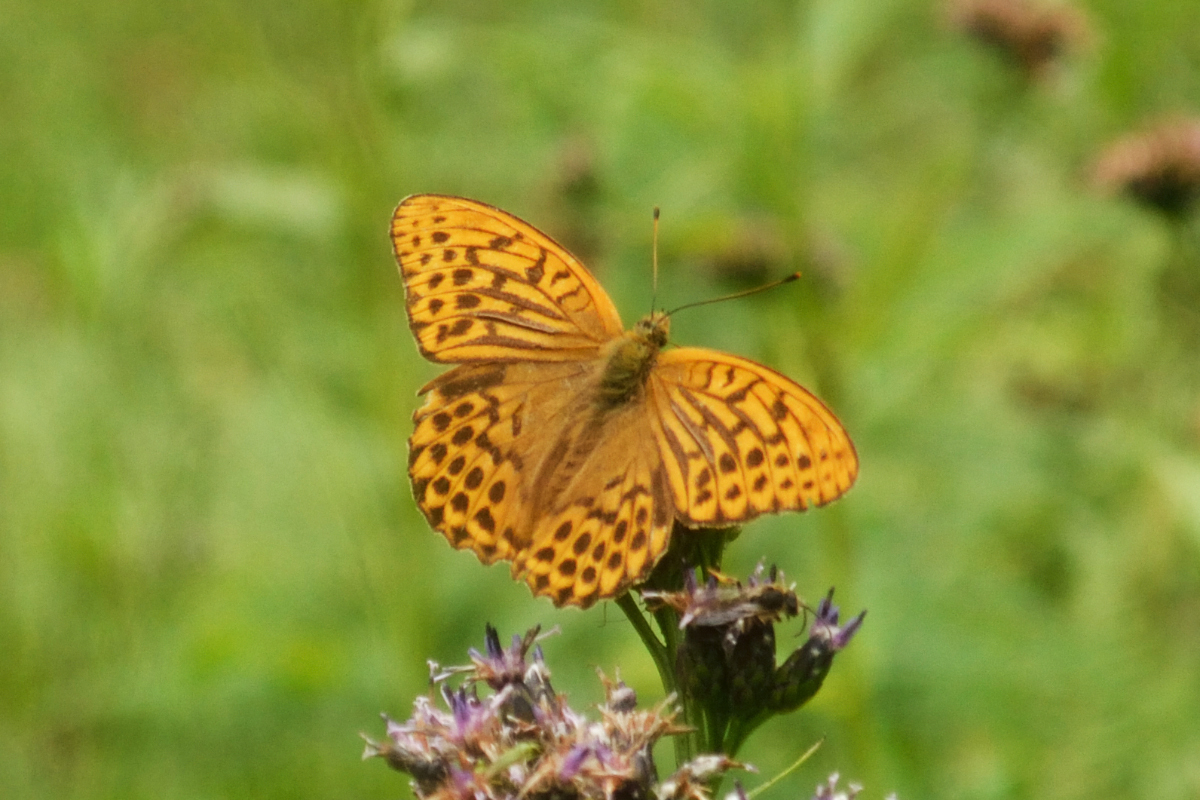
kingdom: Animalia
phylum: Arthropoda
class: Insecta
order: Lepidoptera
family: Nymphalidae
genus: Argynnis
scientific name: Argynnis paphia
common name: Silver-washed fritillary
